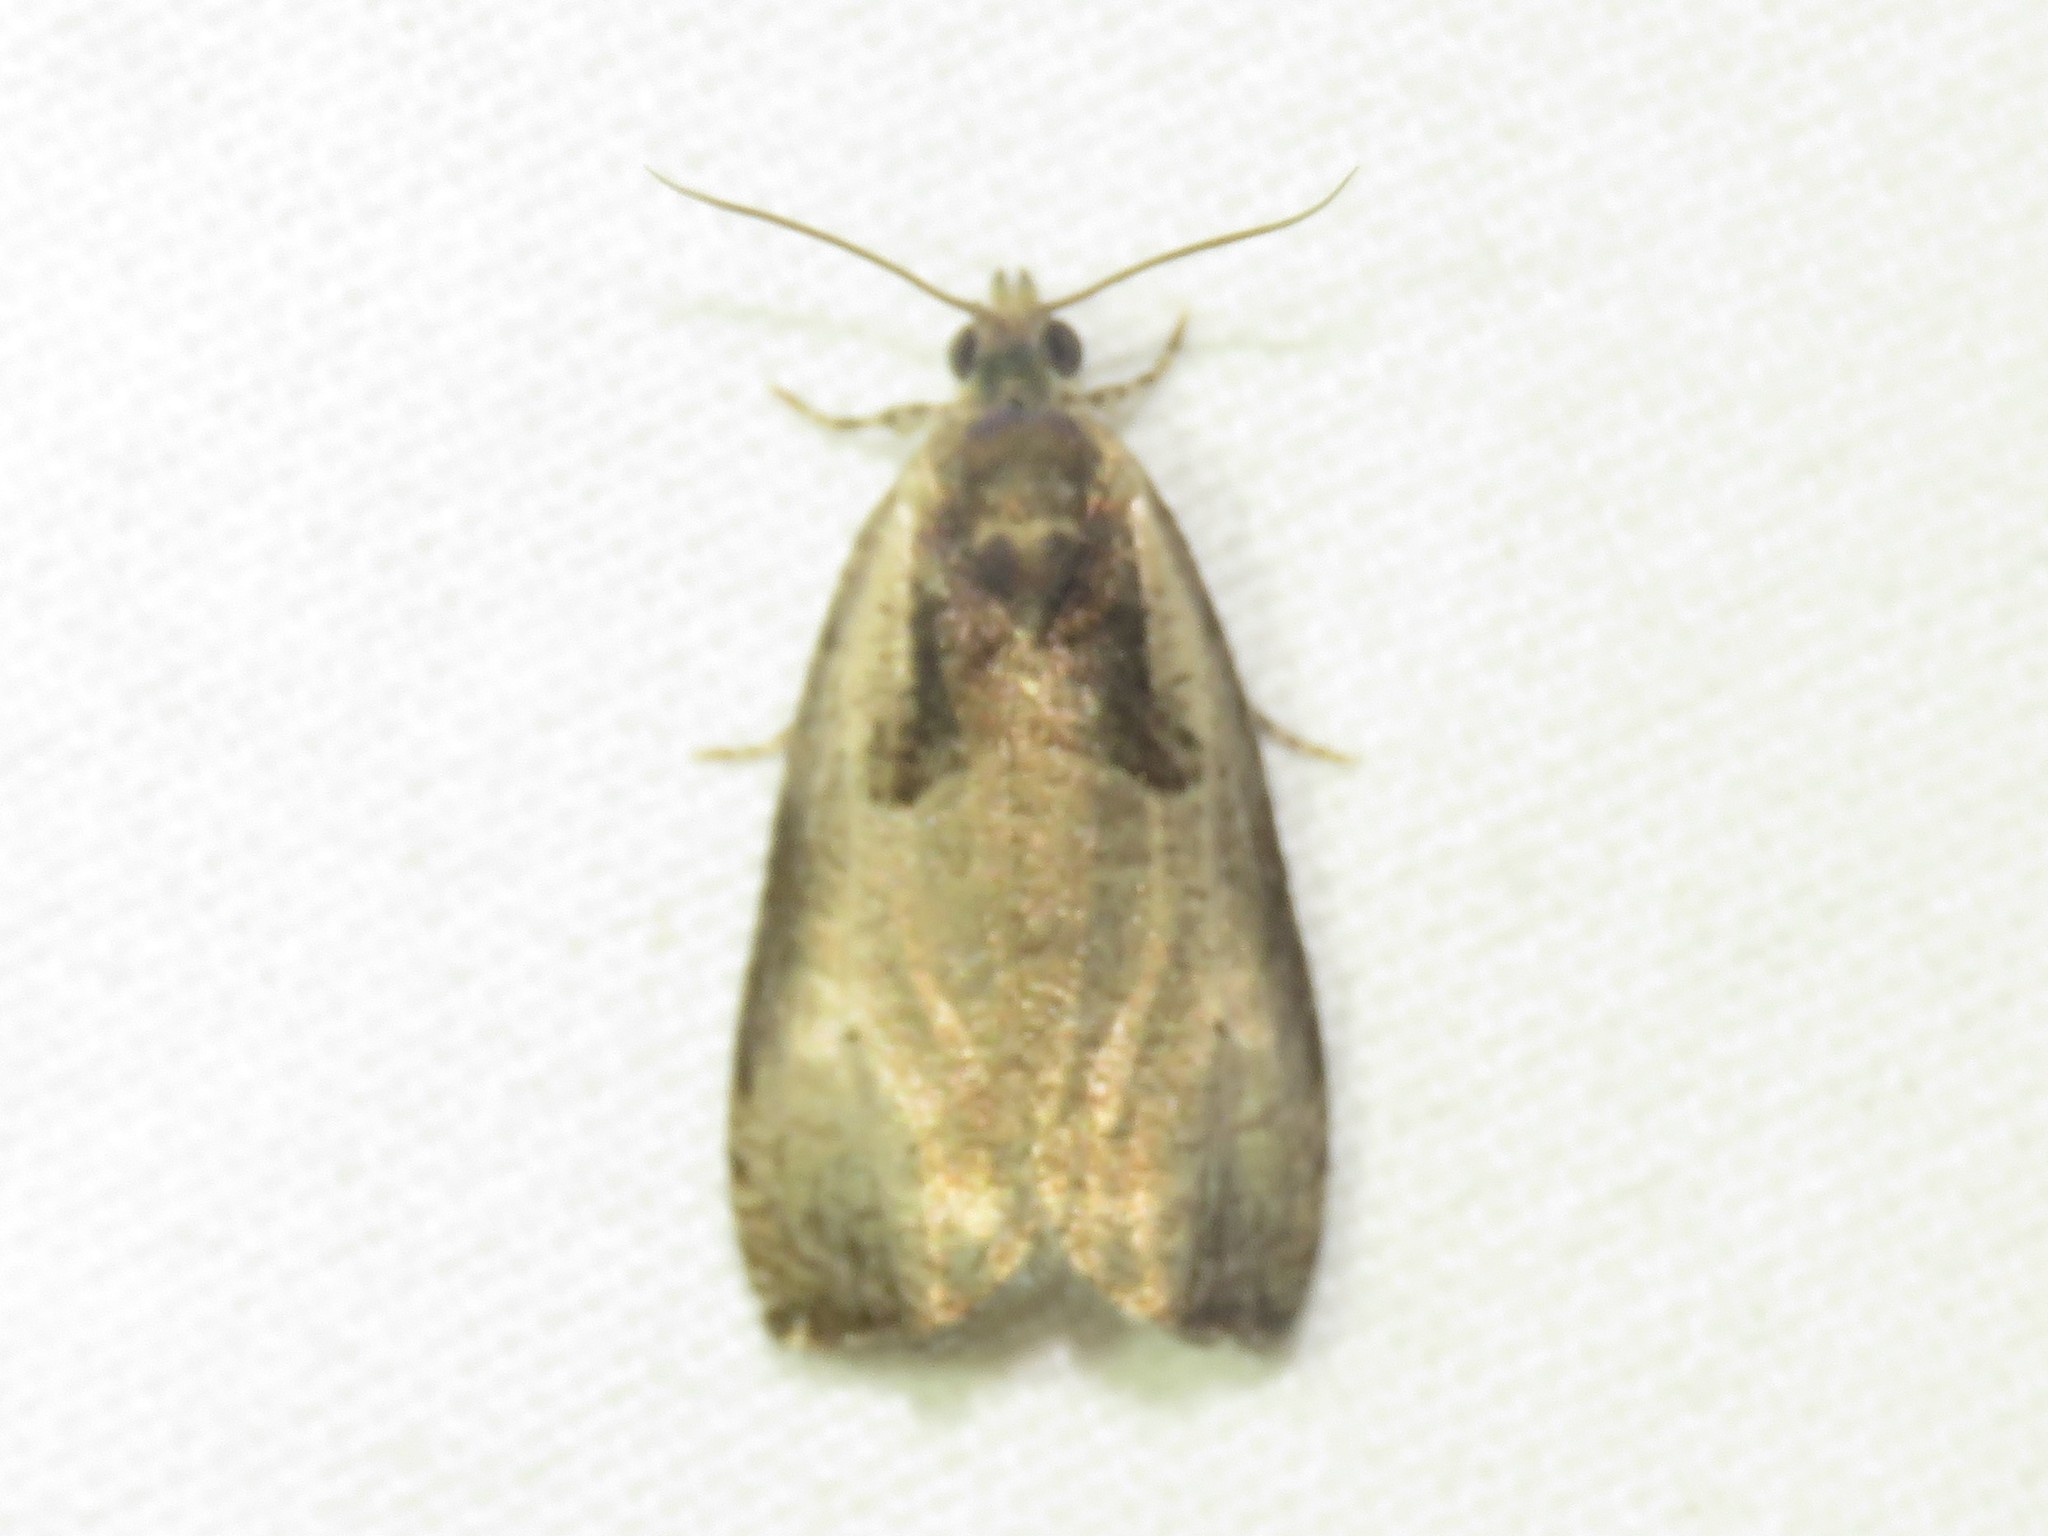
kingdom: Animalia
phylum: Arthropoda
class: Insecta
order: Lepidoptera
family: Tortricidae
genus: Olethreutes
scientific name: Olethreutes punctanum
